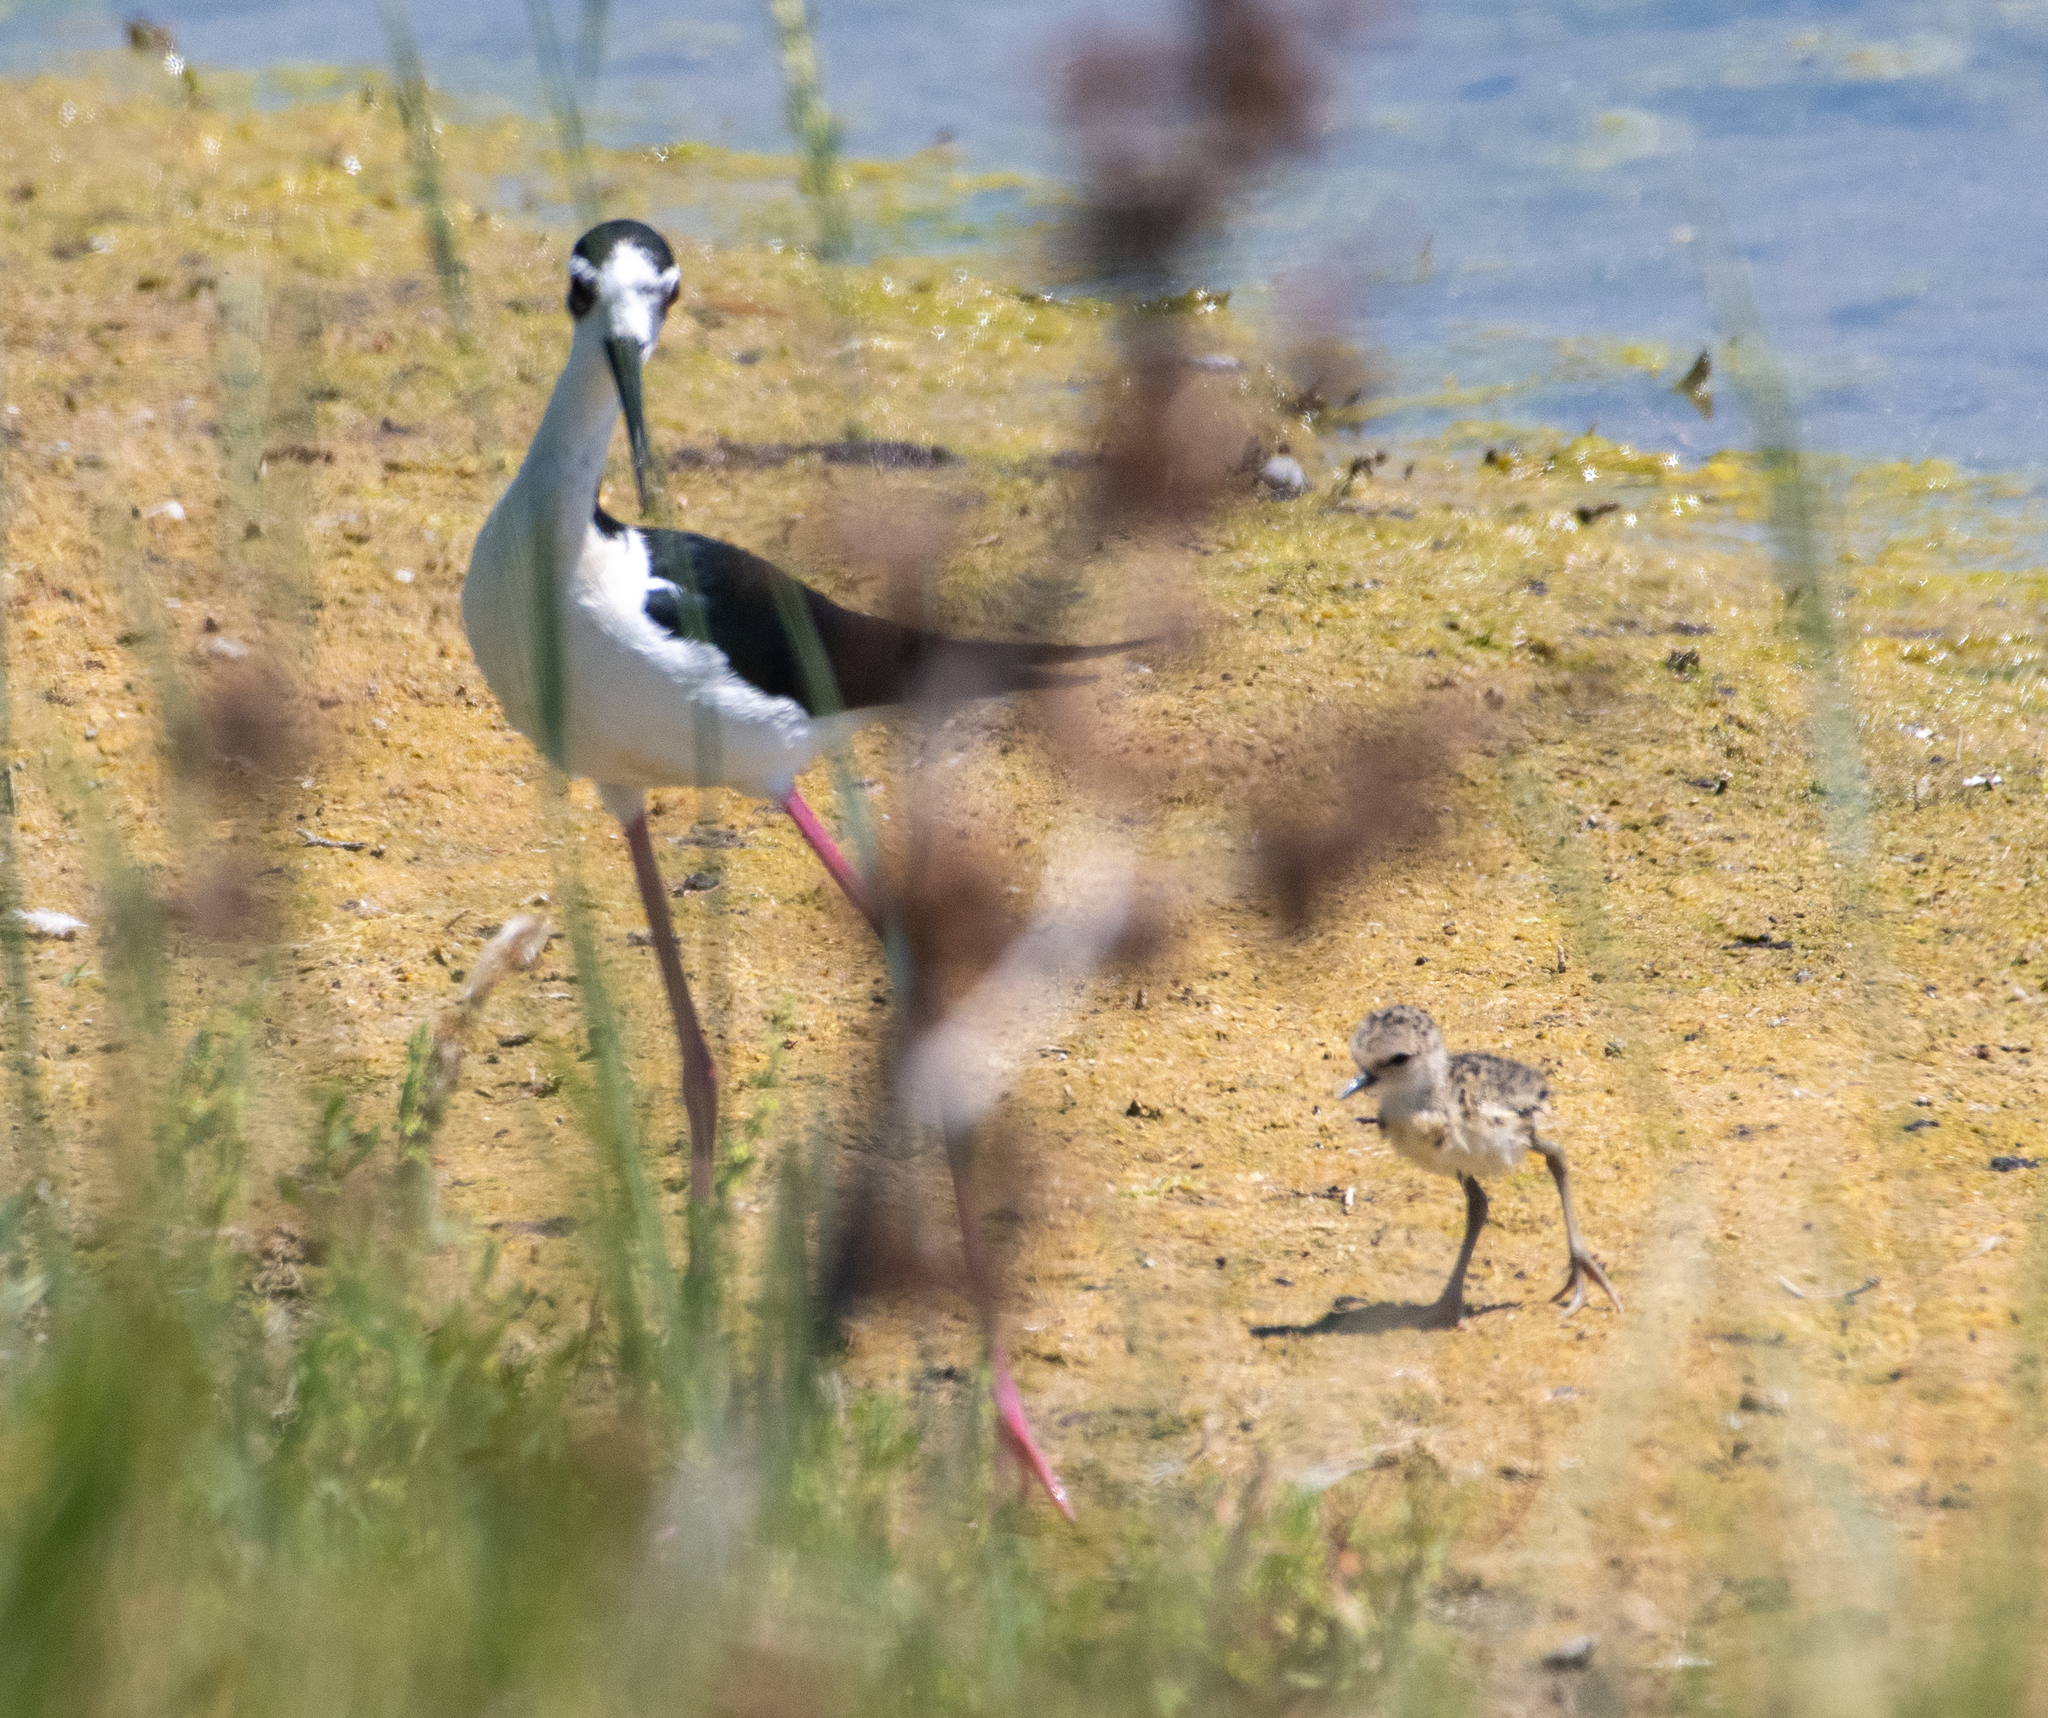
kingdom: Animalia
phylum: Chordata
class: Aves
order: Charadriiformes
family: Recurvirostridae
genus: Himantopus
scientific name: Himantopus mexicanus
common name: Black-necked stilt
